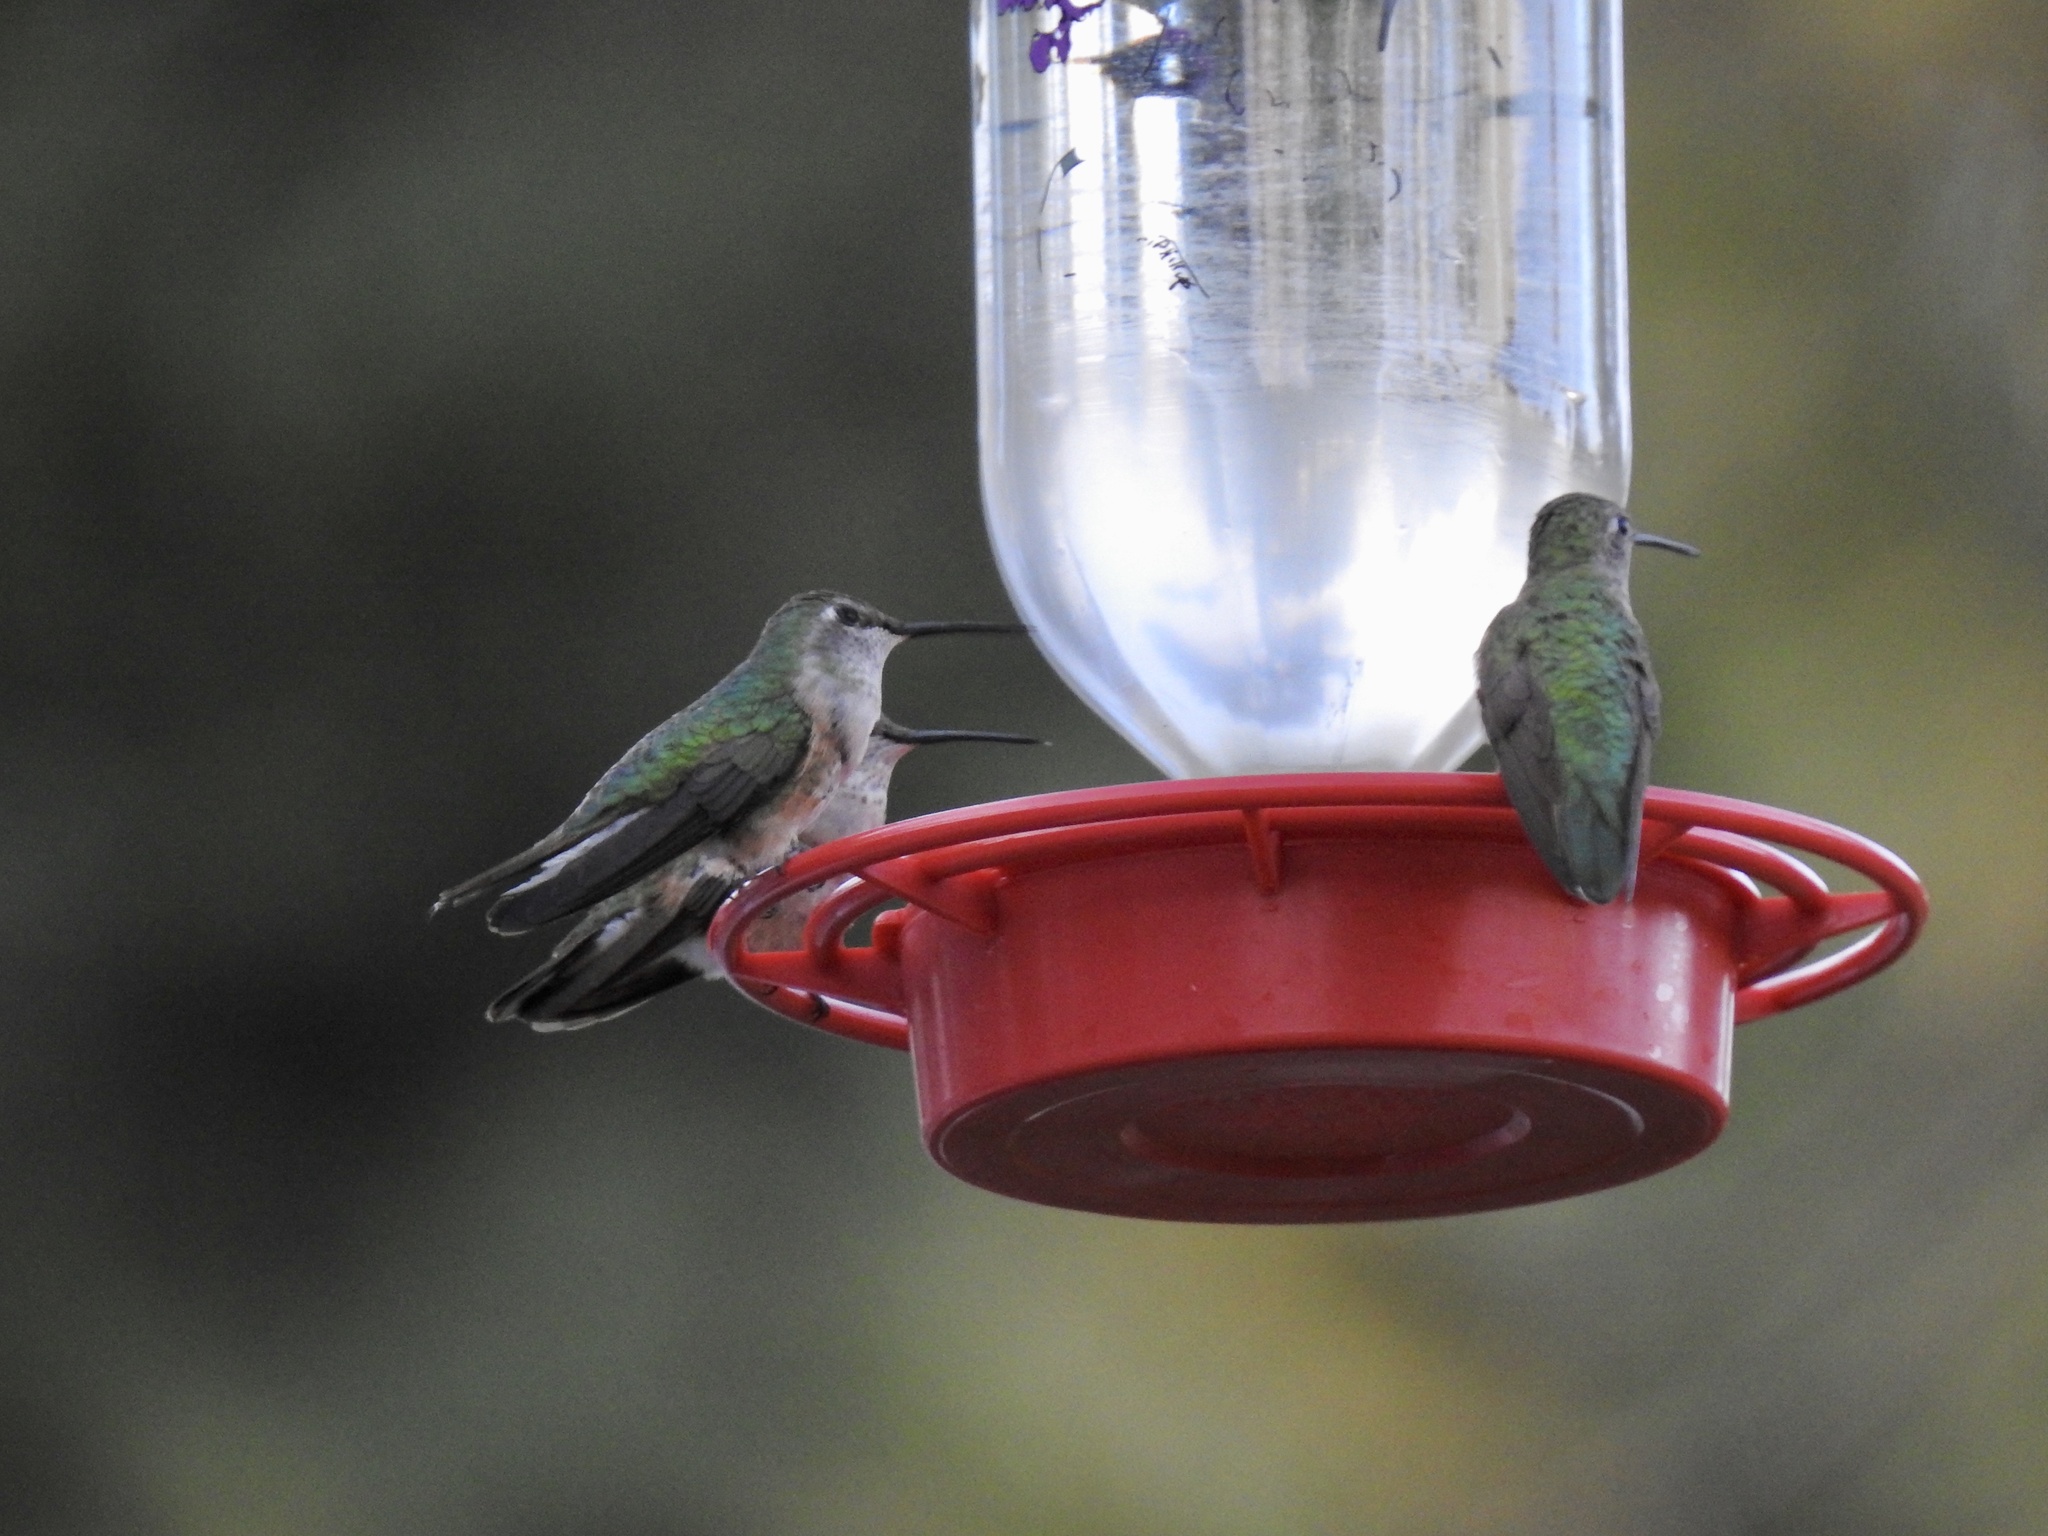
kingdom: Animalia
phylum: Chordata
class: Aves
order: Apodiformes
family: Trochilidae
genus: Selasphorus
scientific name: Selasphorus platycercus
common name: Broad-tailed hummingbird
